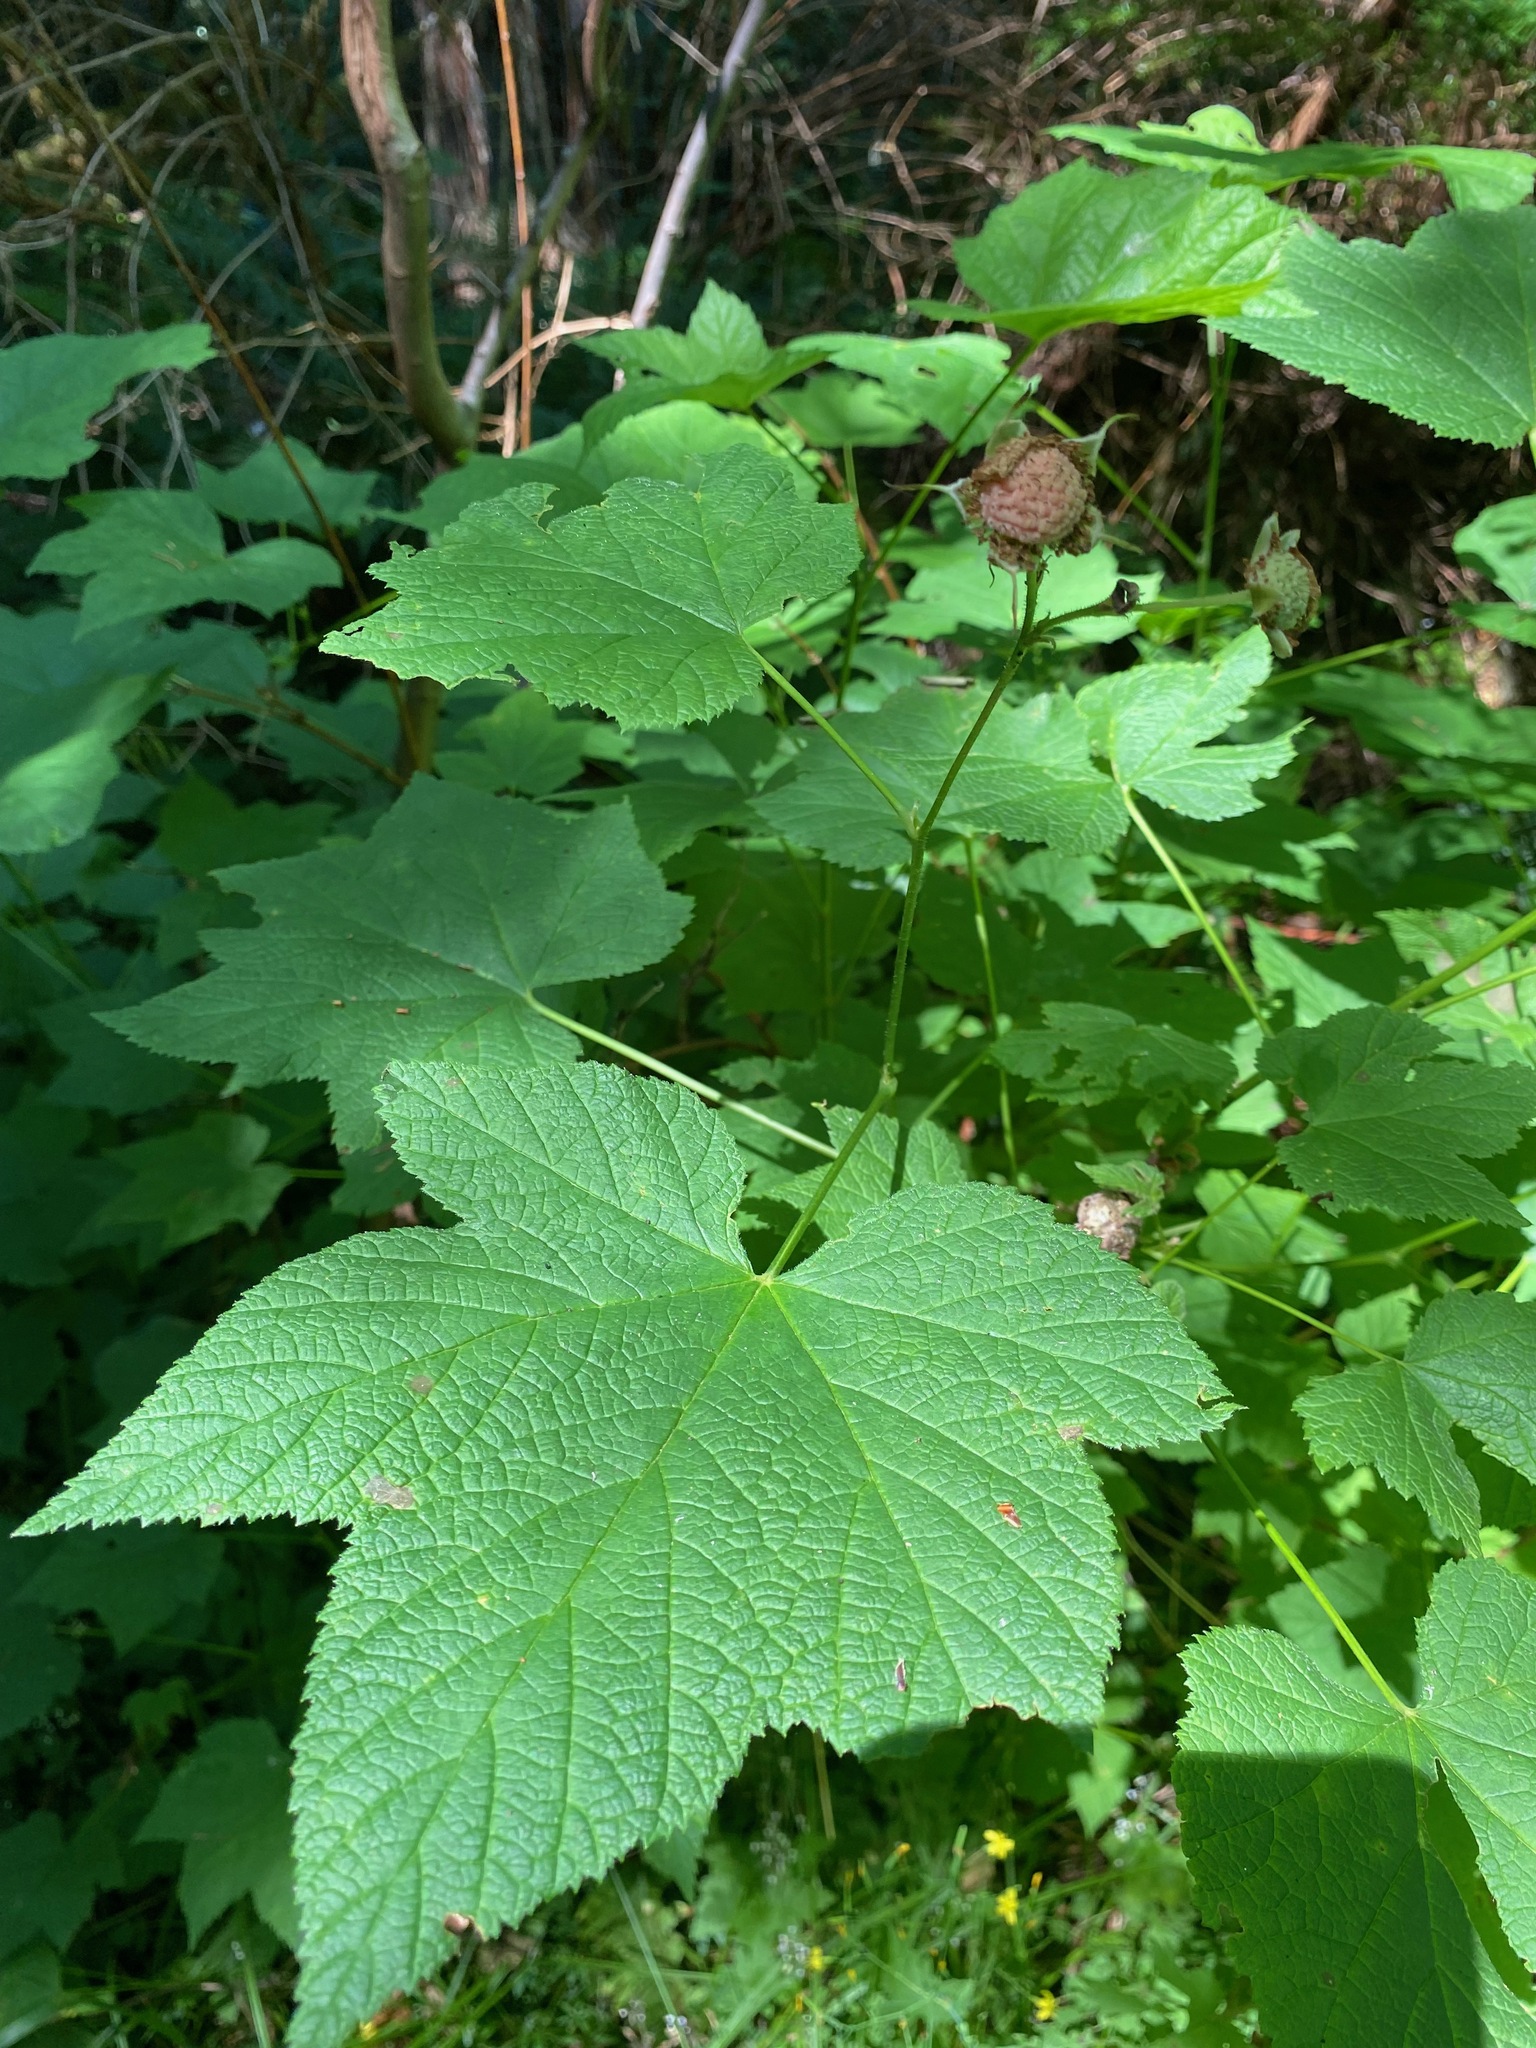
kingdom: Plantae
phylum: Tracheophyta
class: Magnoliopsida
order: Rosales
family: Rosaceae
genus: Rubus
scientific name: Rubus parviflorus
